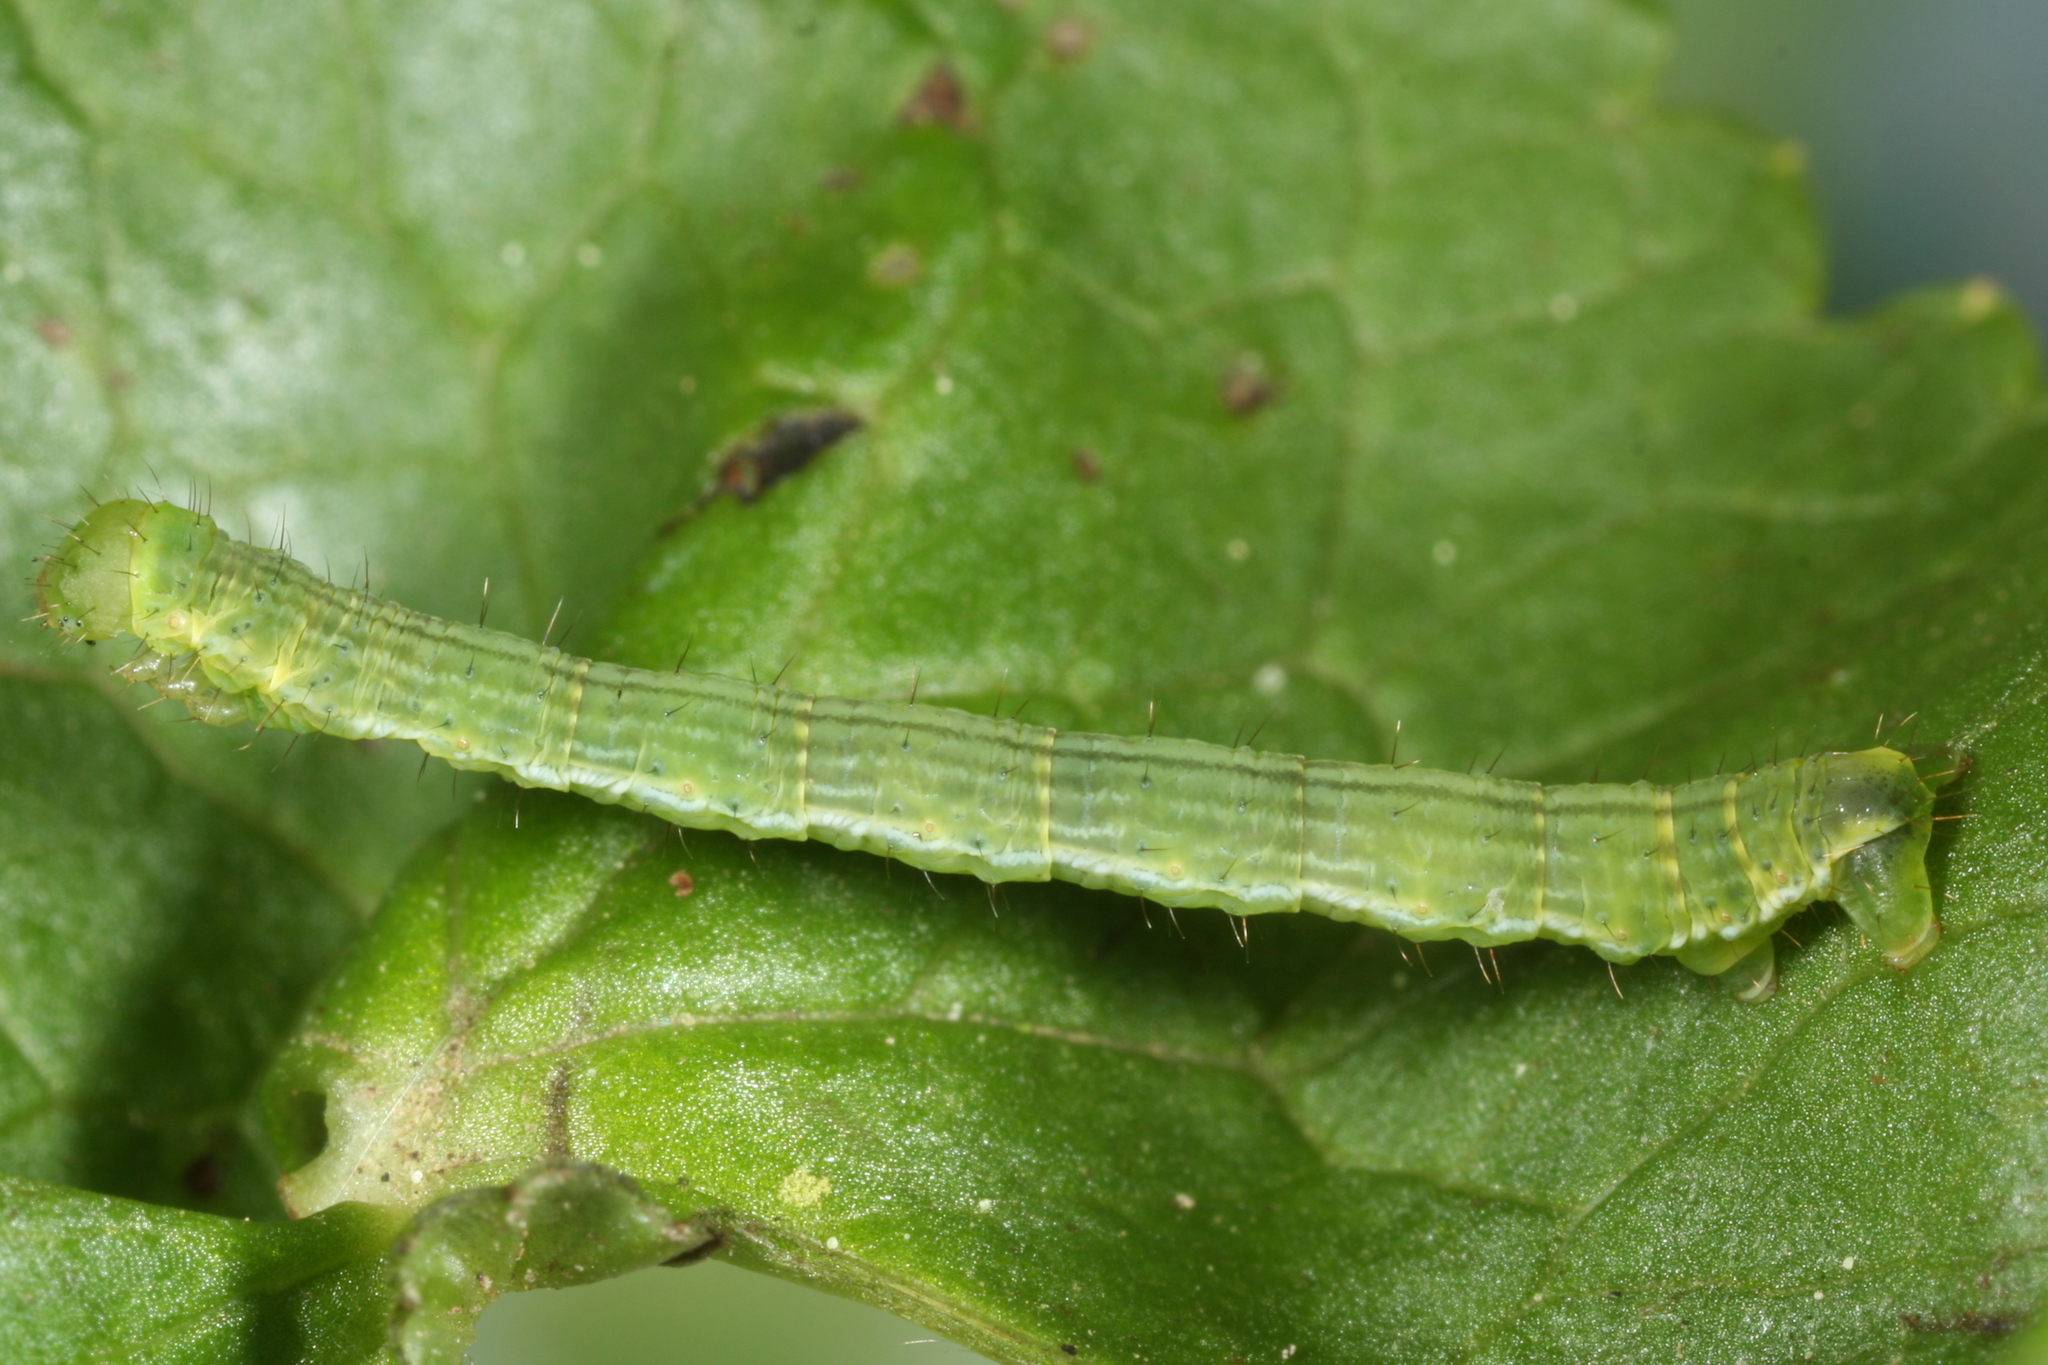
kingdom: Animalia
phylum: Arthropoda
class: Insecta
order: Lepidoptera
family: Geometridae
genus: Perizoma
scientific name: Perizoma didymata
